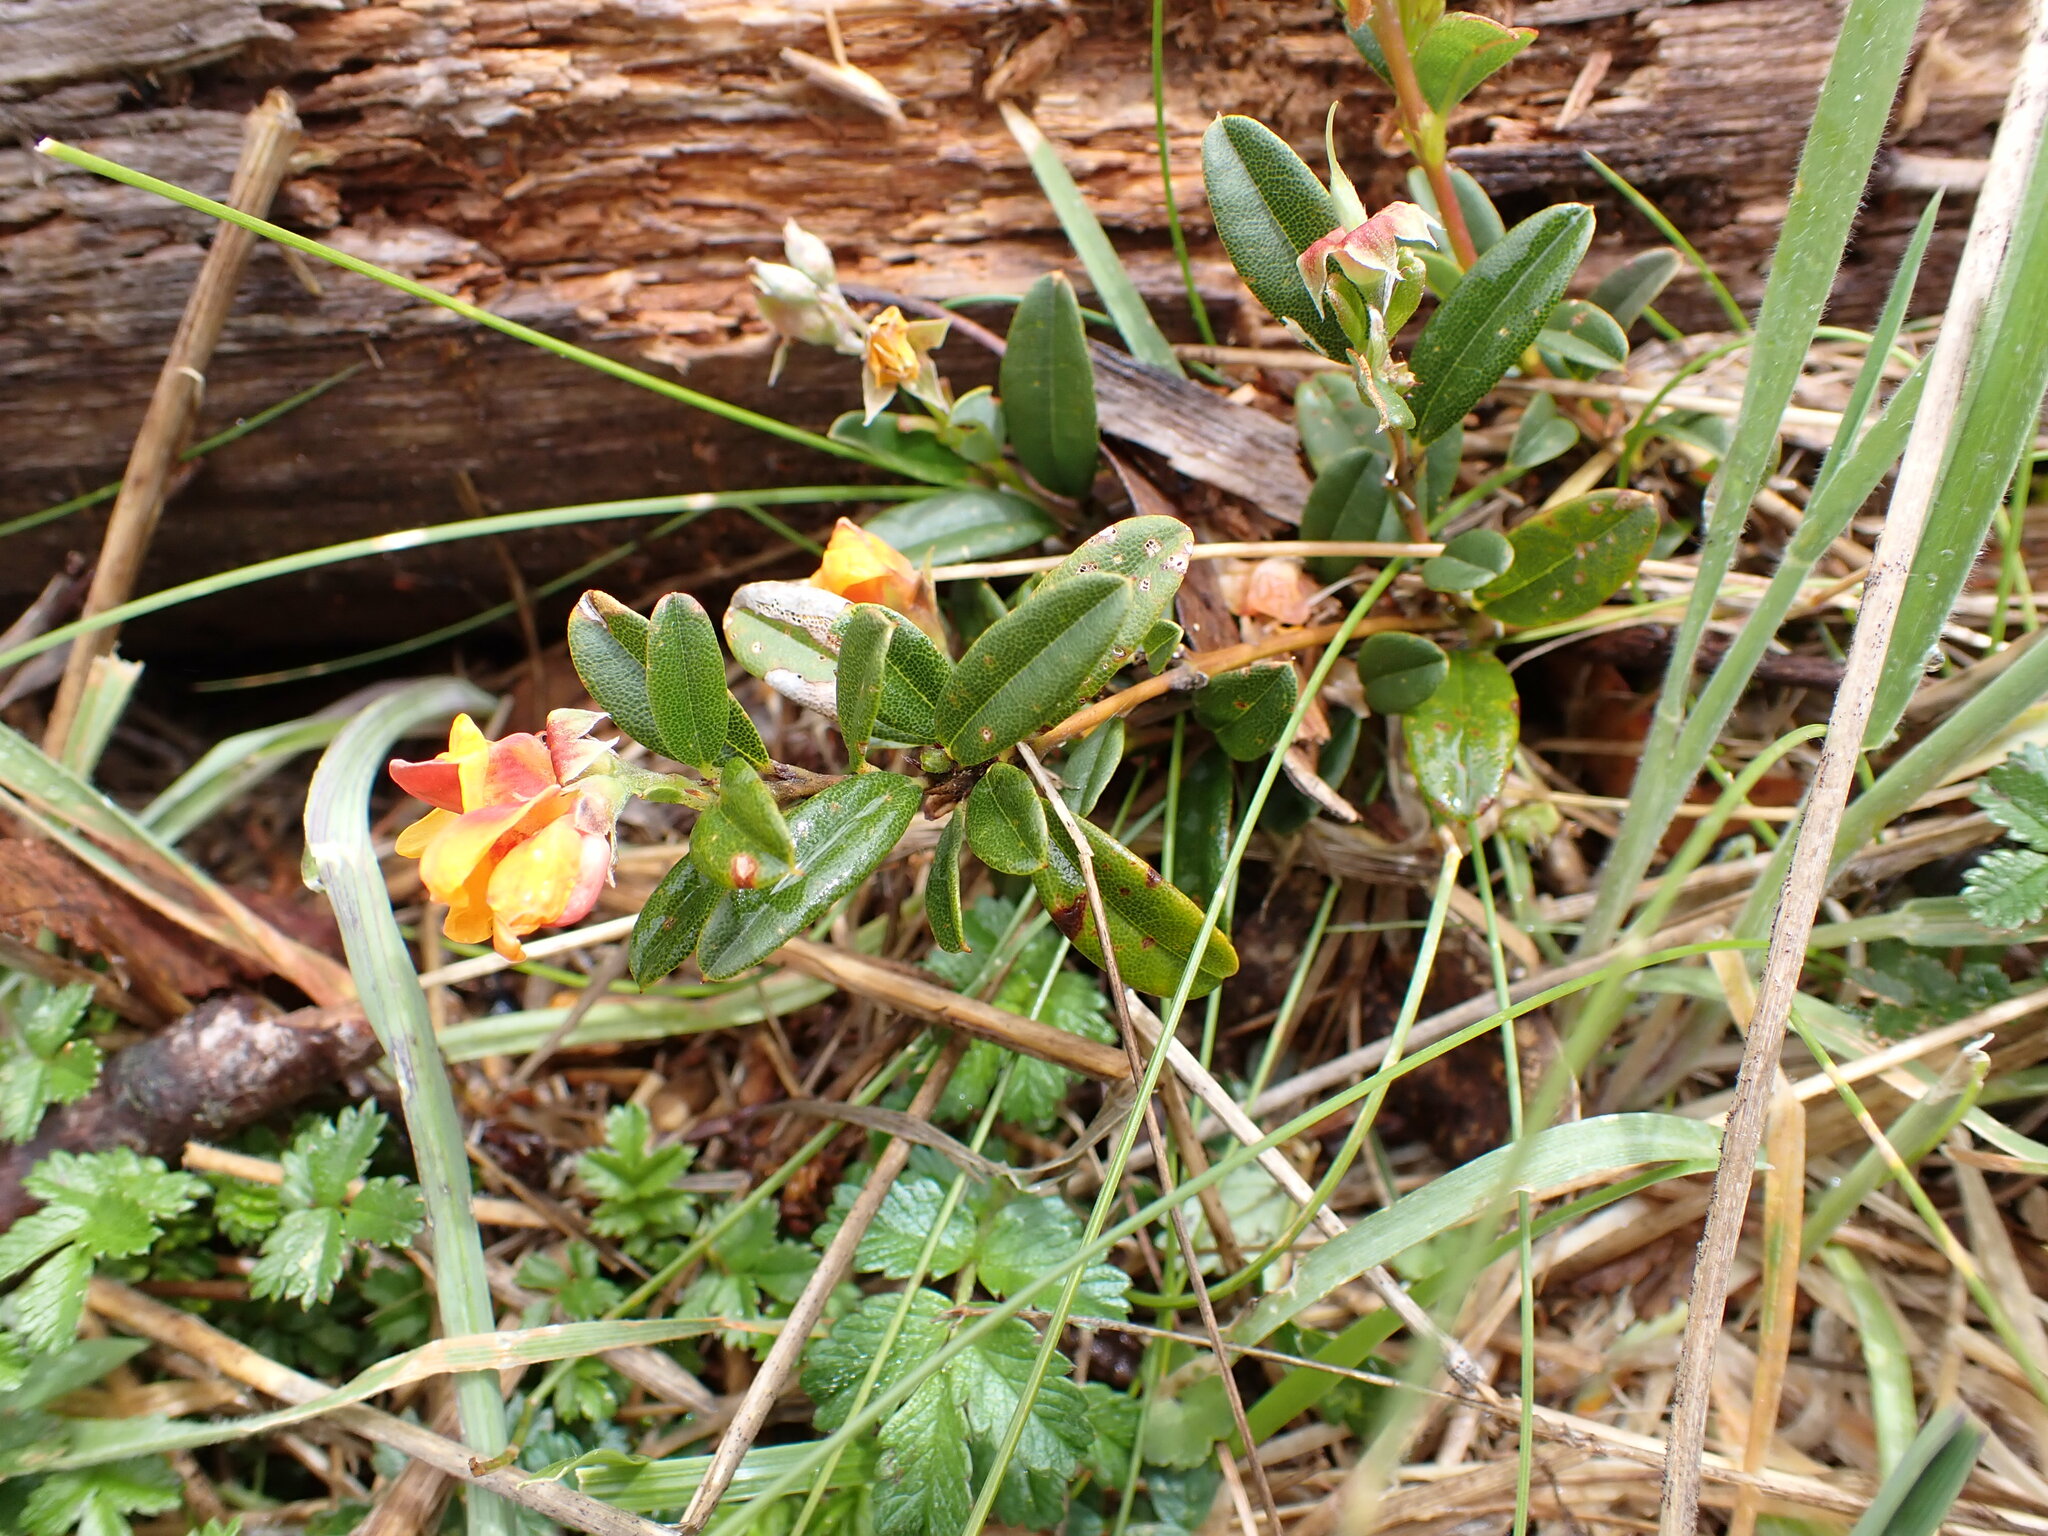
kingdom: Plantae
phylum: Tracheophyta
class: Magnoliopsida
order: Fabales
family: Fabaceae
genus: Podolobium
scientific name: Podolobium alpestre
